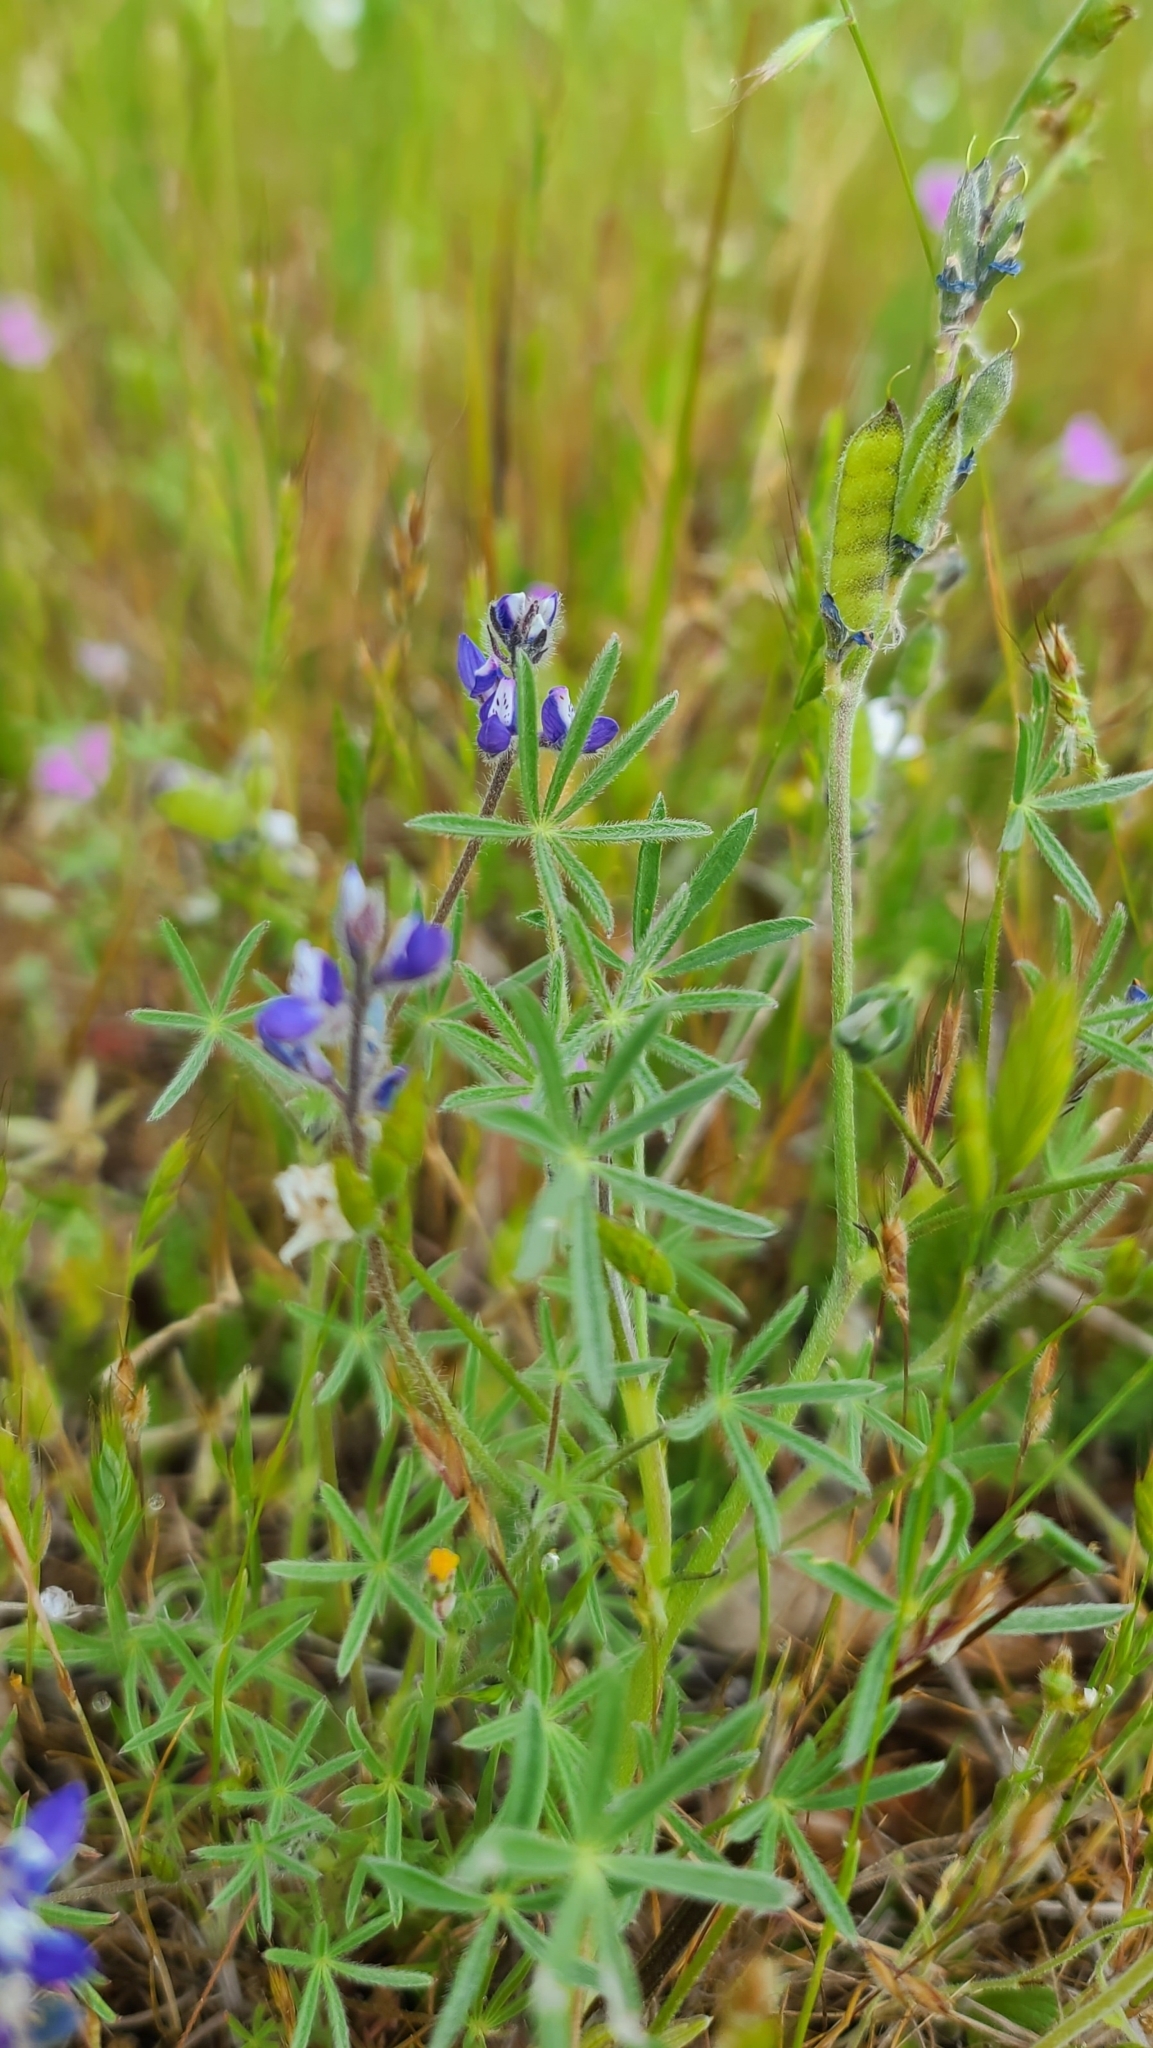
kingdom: Plantae
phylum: Tracheophyta
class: Magnoliopsida
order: Fabales
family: Fabaceae
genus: Lupinus
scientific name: Lupinus bicolor
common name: Miniature lupine
